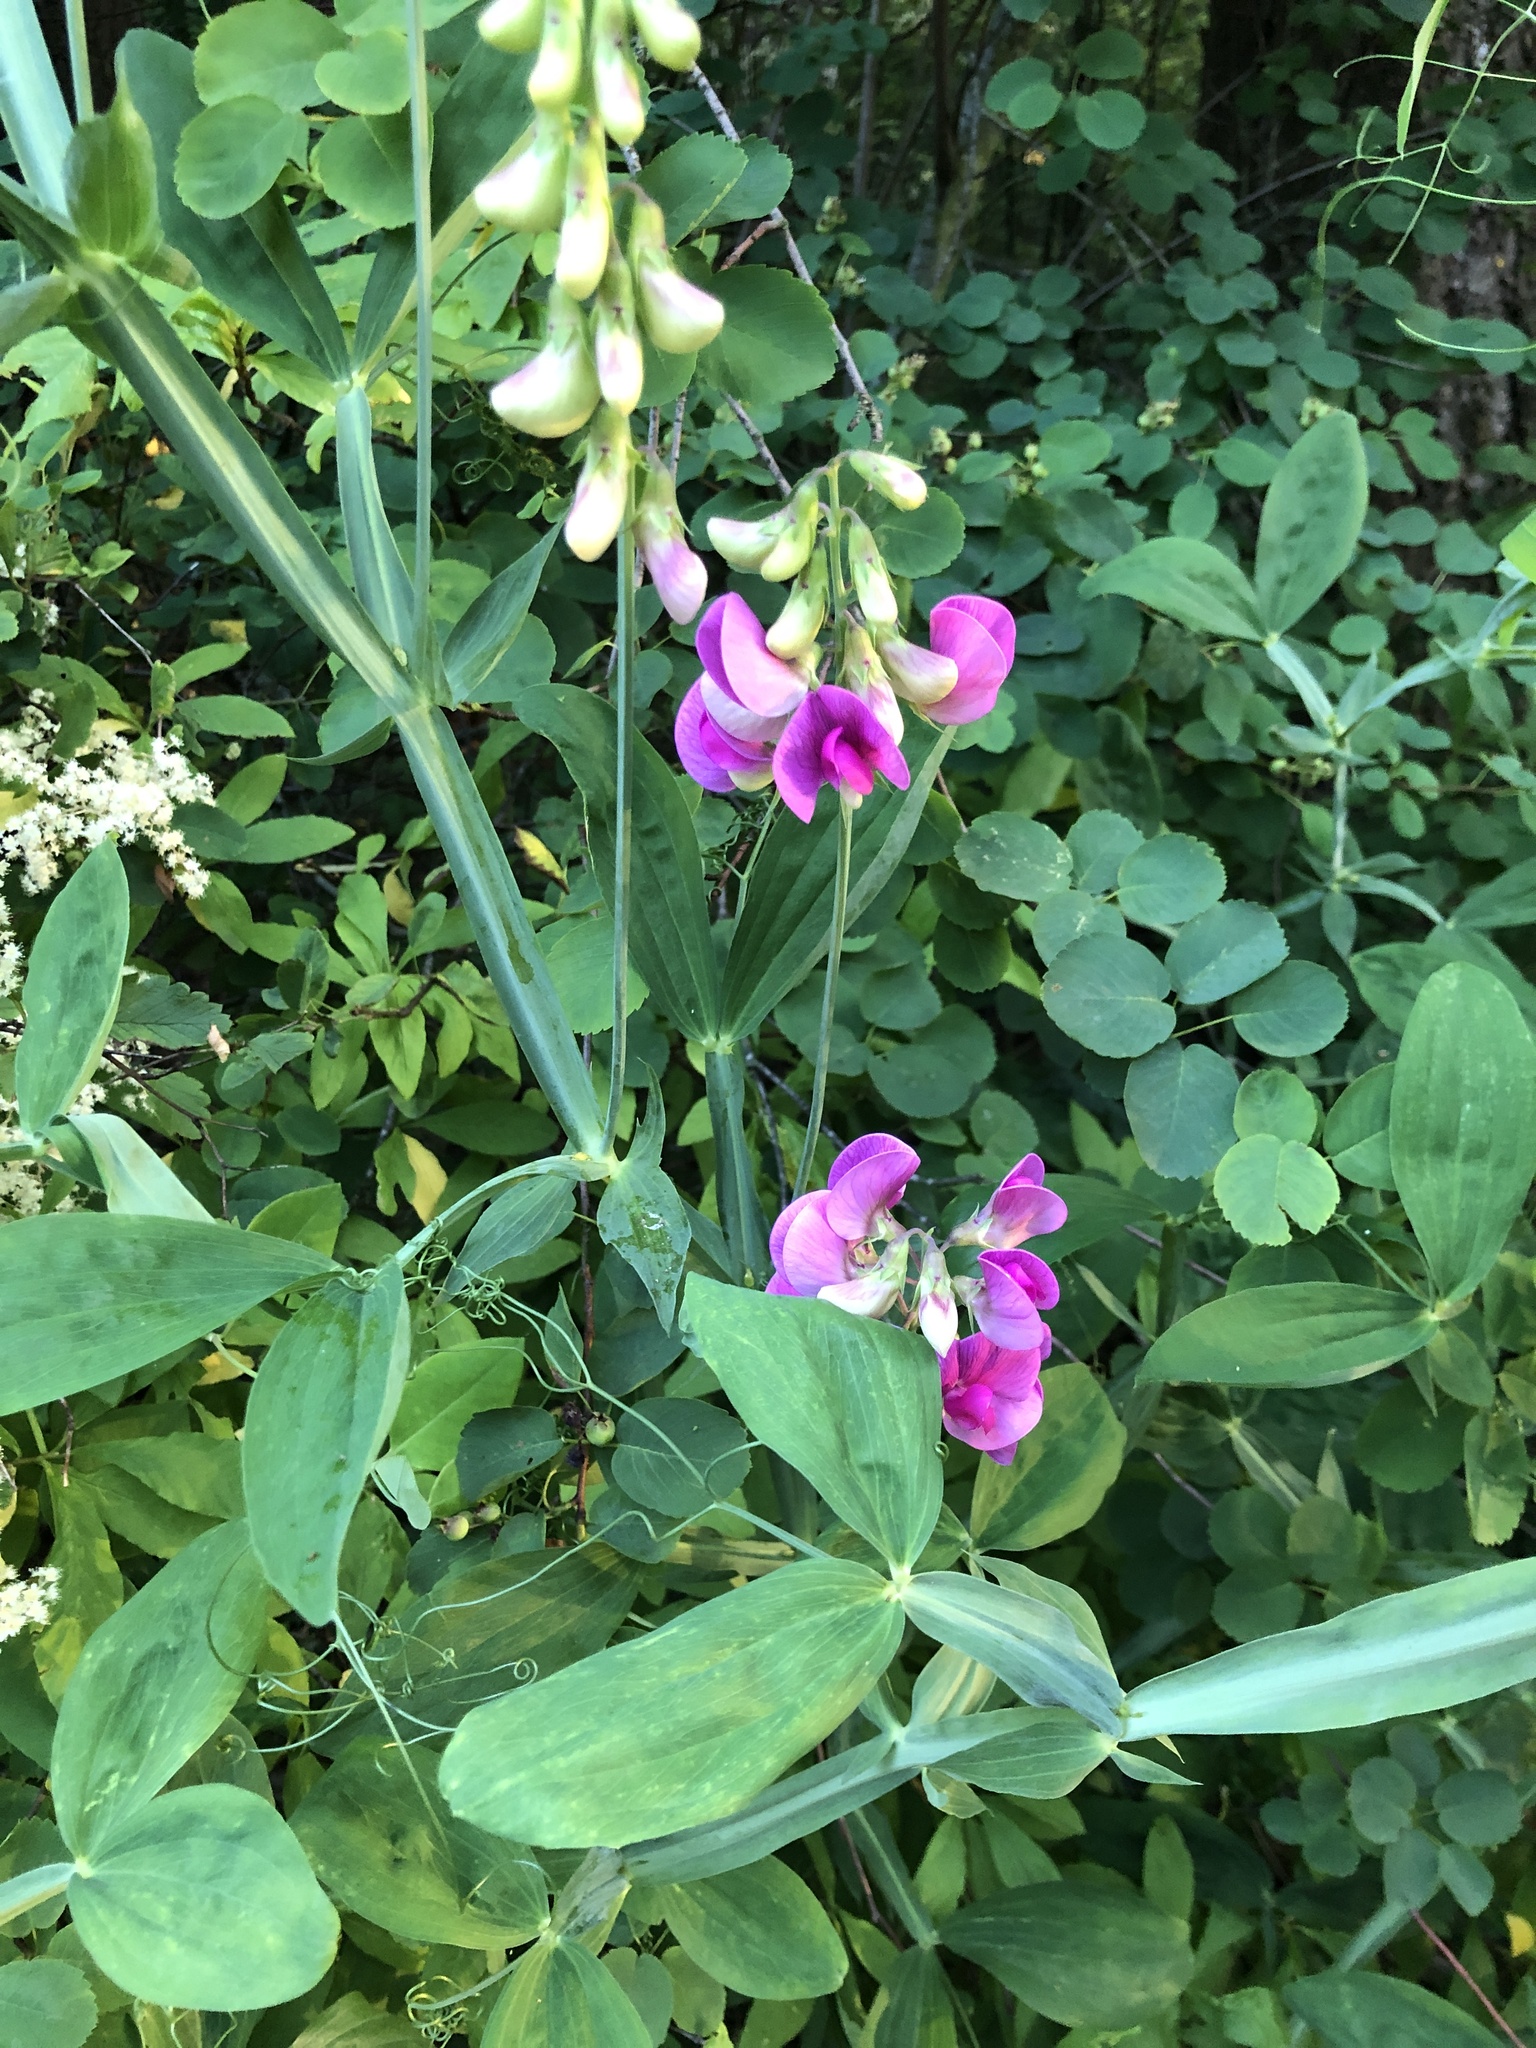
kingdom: Plantae
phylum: Tracheophyta
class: Magnoliopsida
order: Fabales
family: Fabaceae
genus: Lathyrus
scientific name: Lathyrus latifolius
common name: Perennial pea
